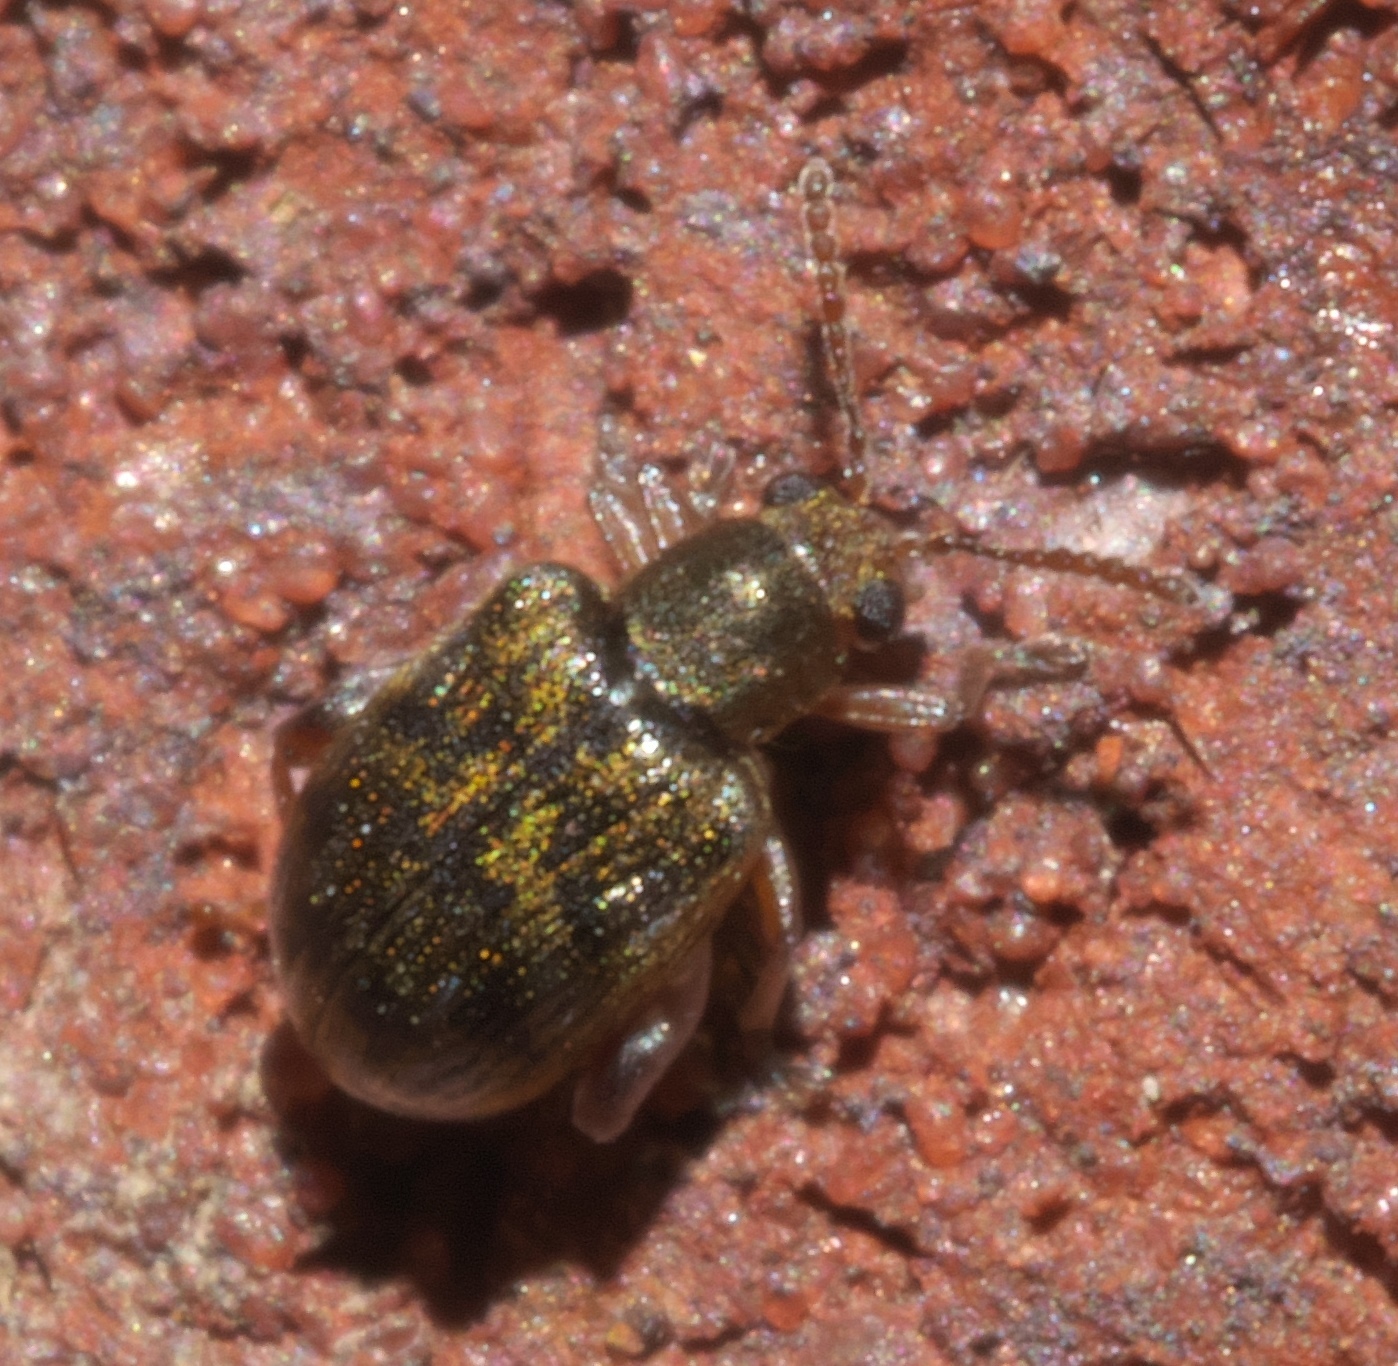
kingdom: Animalia
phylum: Arthropoda
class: Insecta
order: Coleoptera
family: Chrysomelidae
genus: Pseudolampis
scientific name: Pseudolampis guttata
